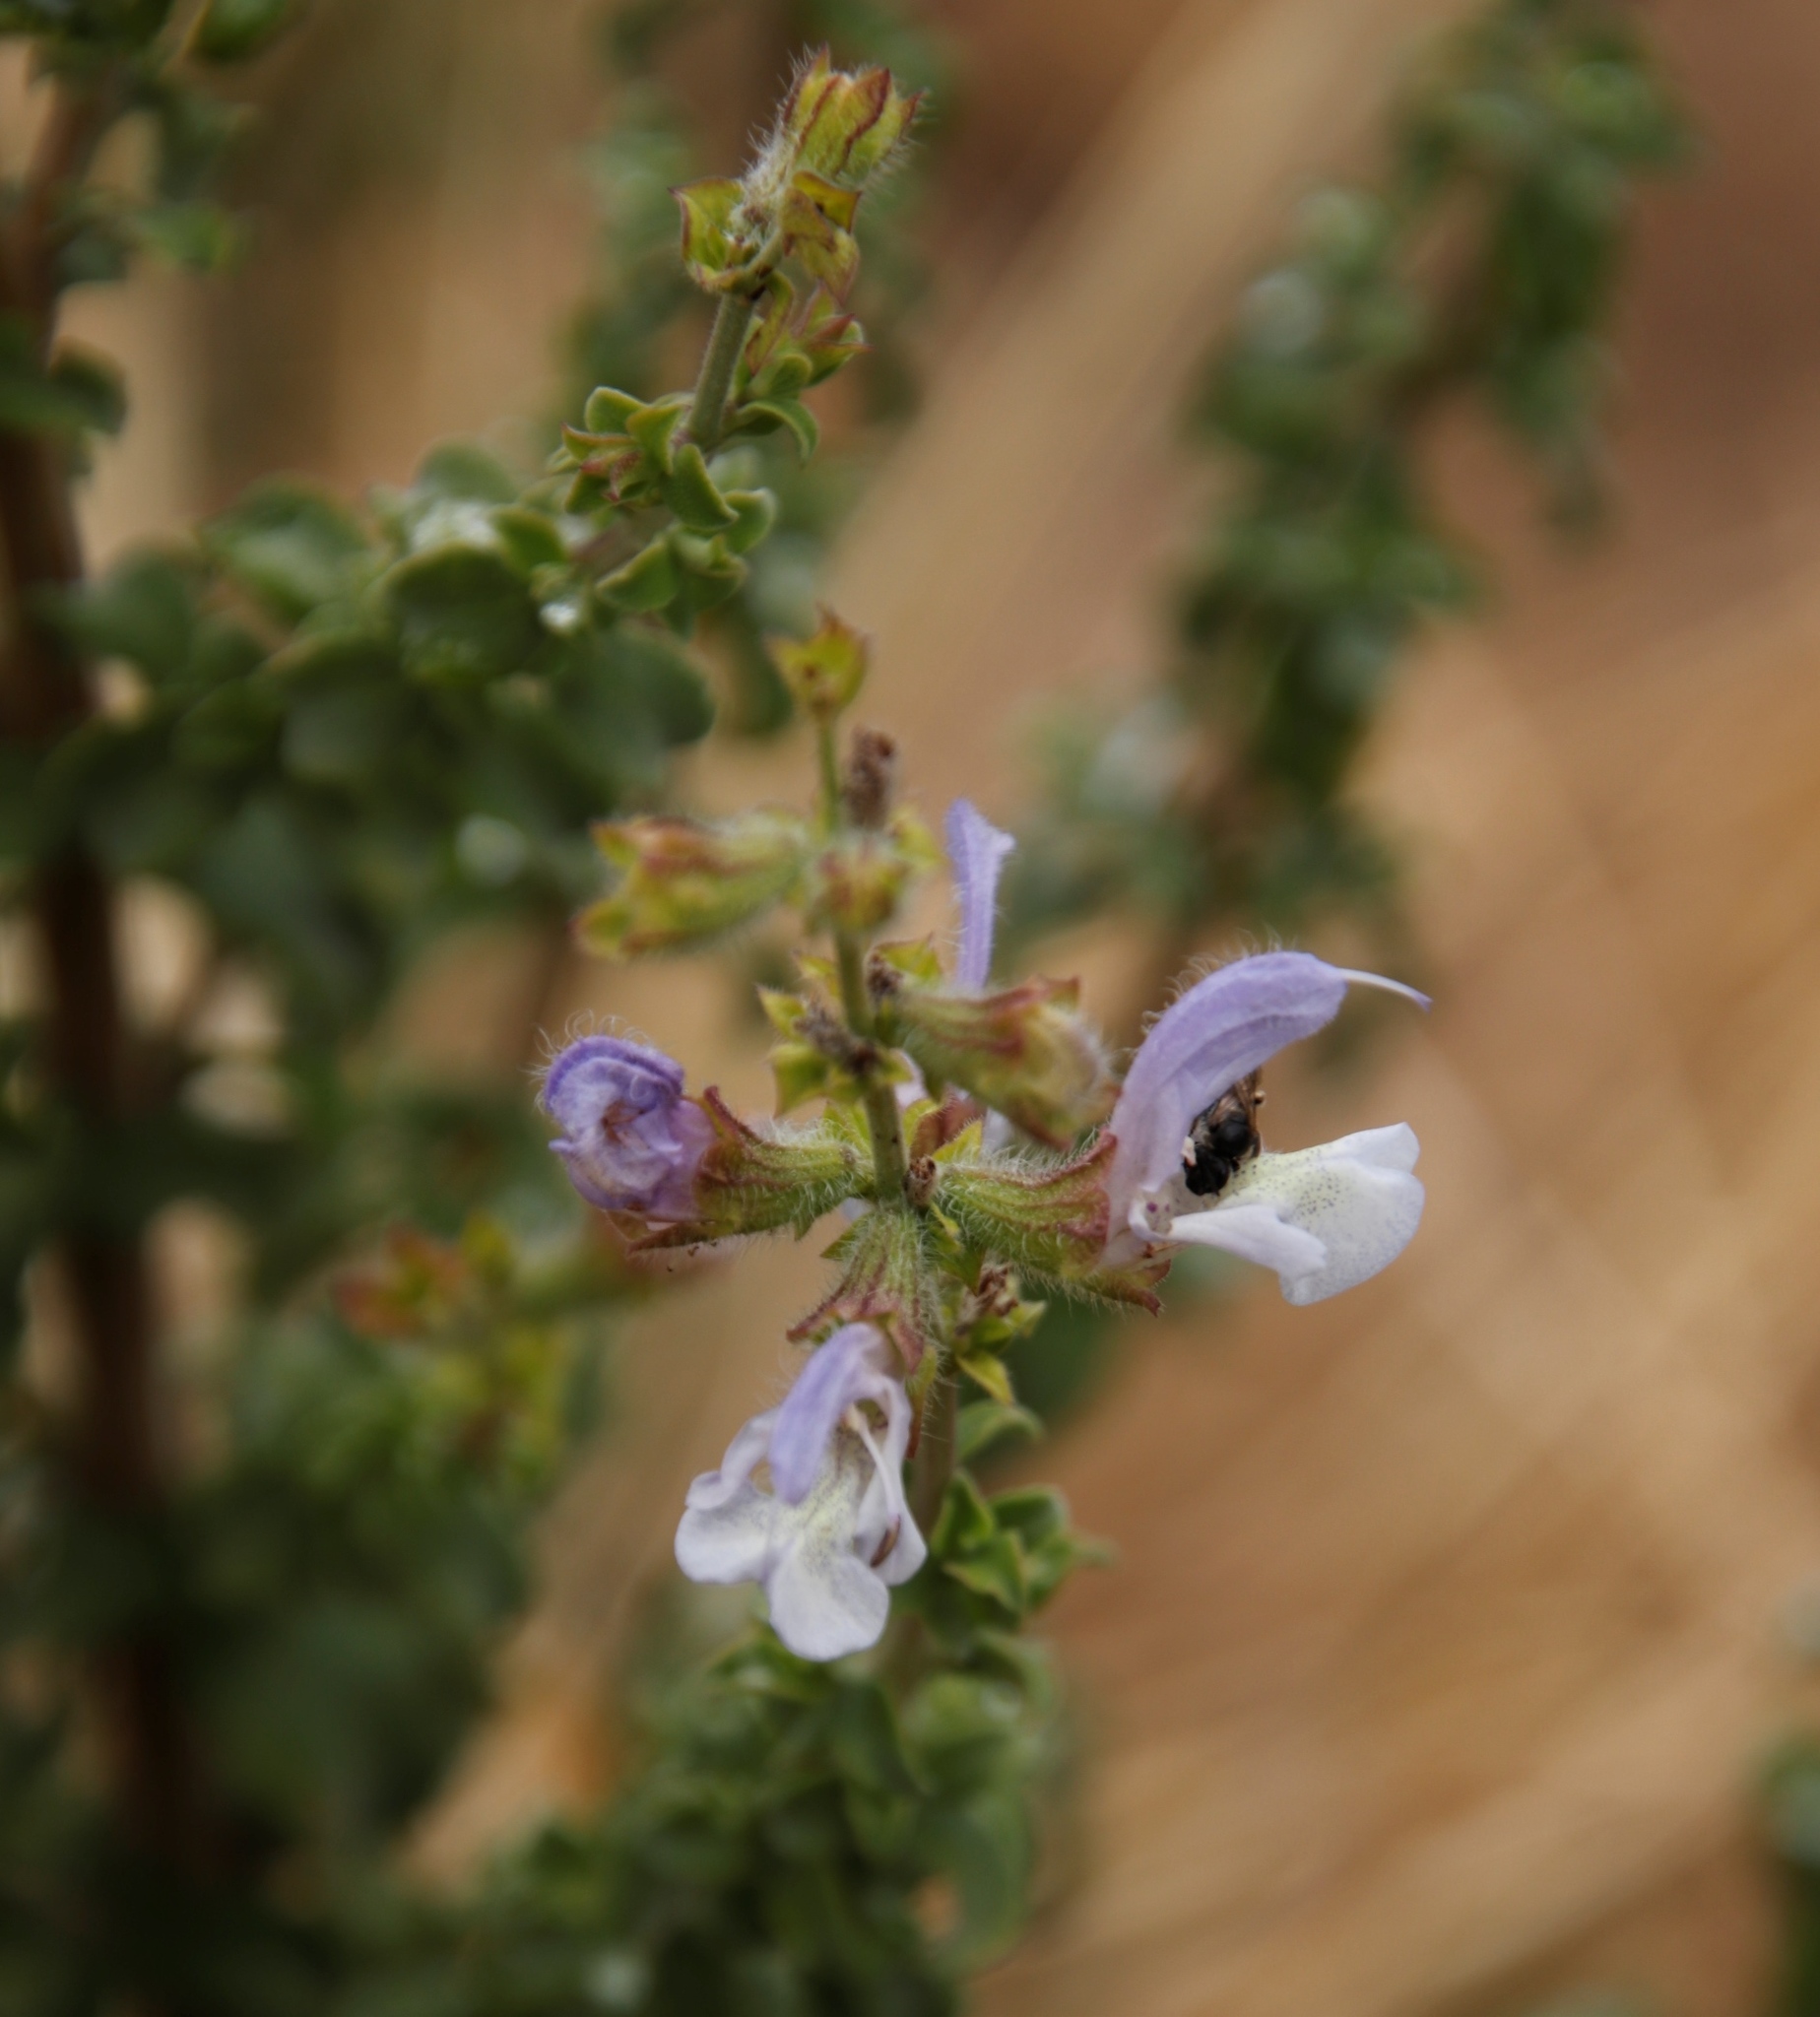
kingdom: Plantae
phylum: Tracheophyta
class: Magnoliopsida
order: Lamiales
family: Lamiaceae
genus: Salvia
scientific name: Salvia africana
